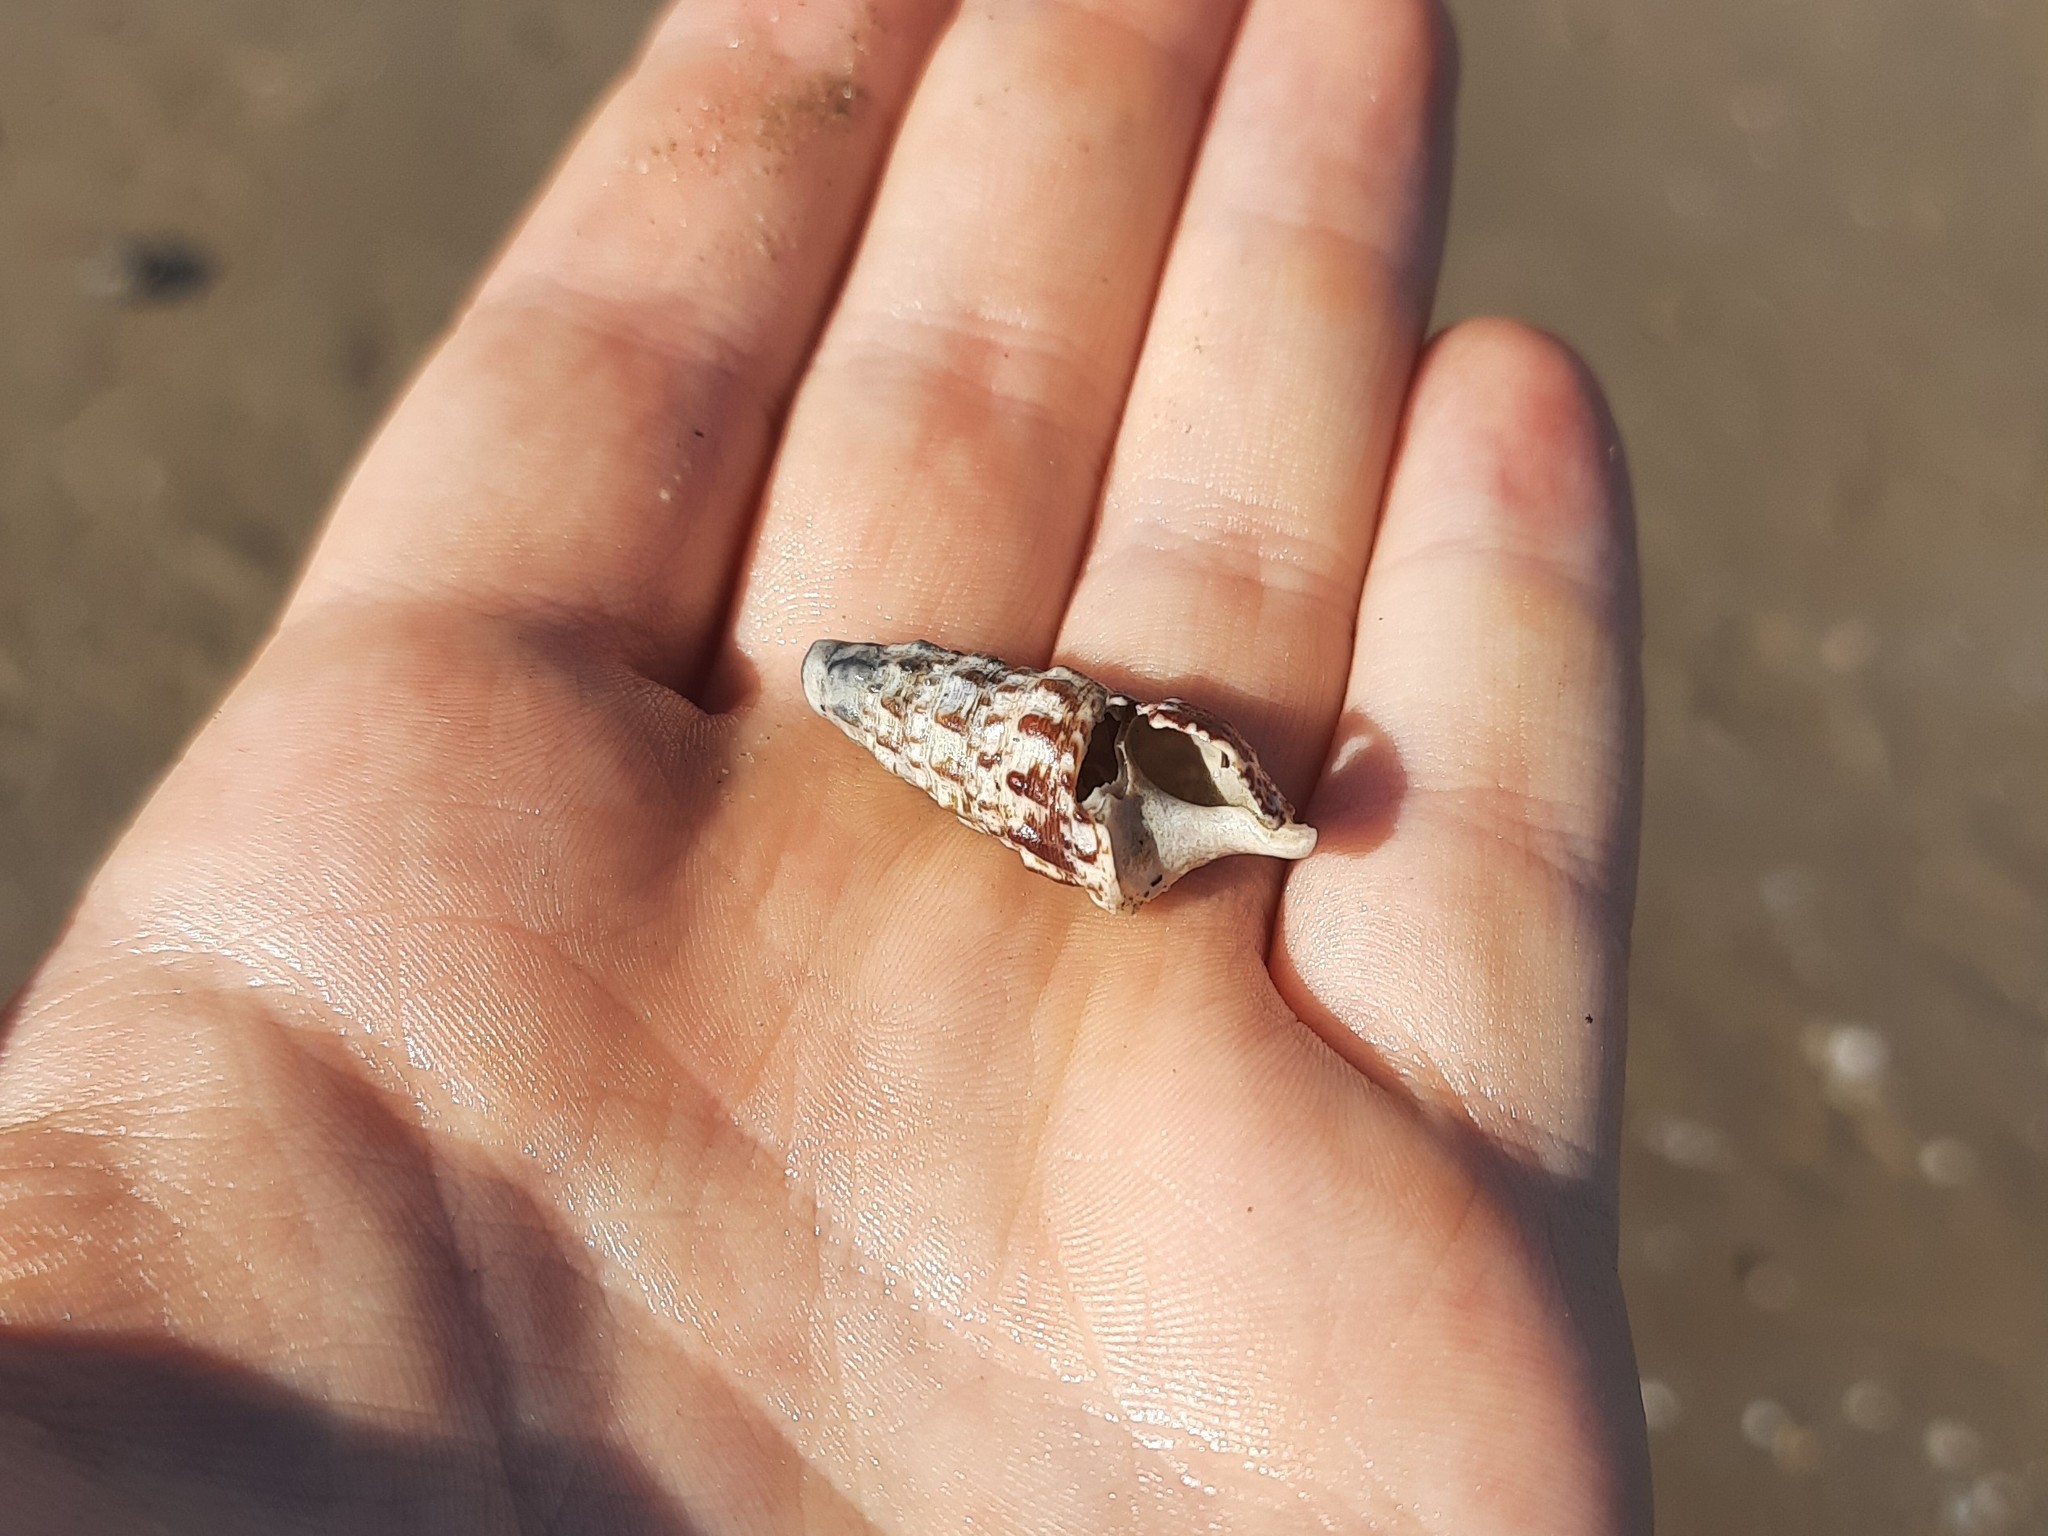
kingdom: Animalia
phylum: Mollusca
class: Gastropoda
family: Cerithiidae
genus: Cerithium
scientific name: Cerithium vulgatum
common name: European cerith
